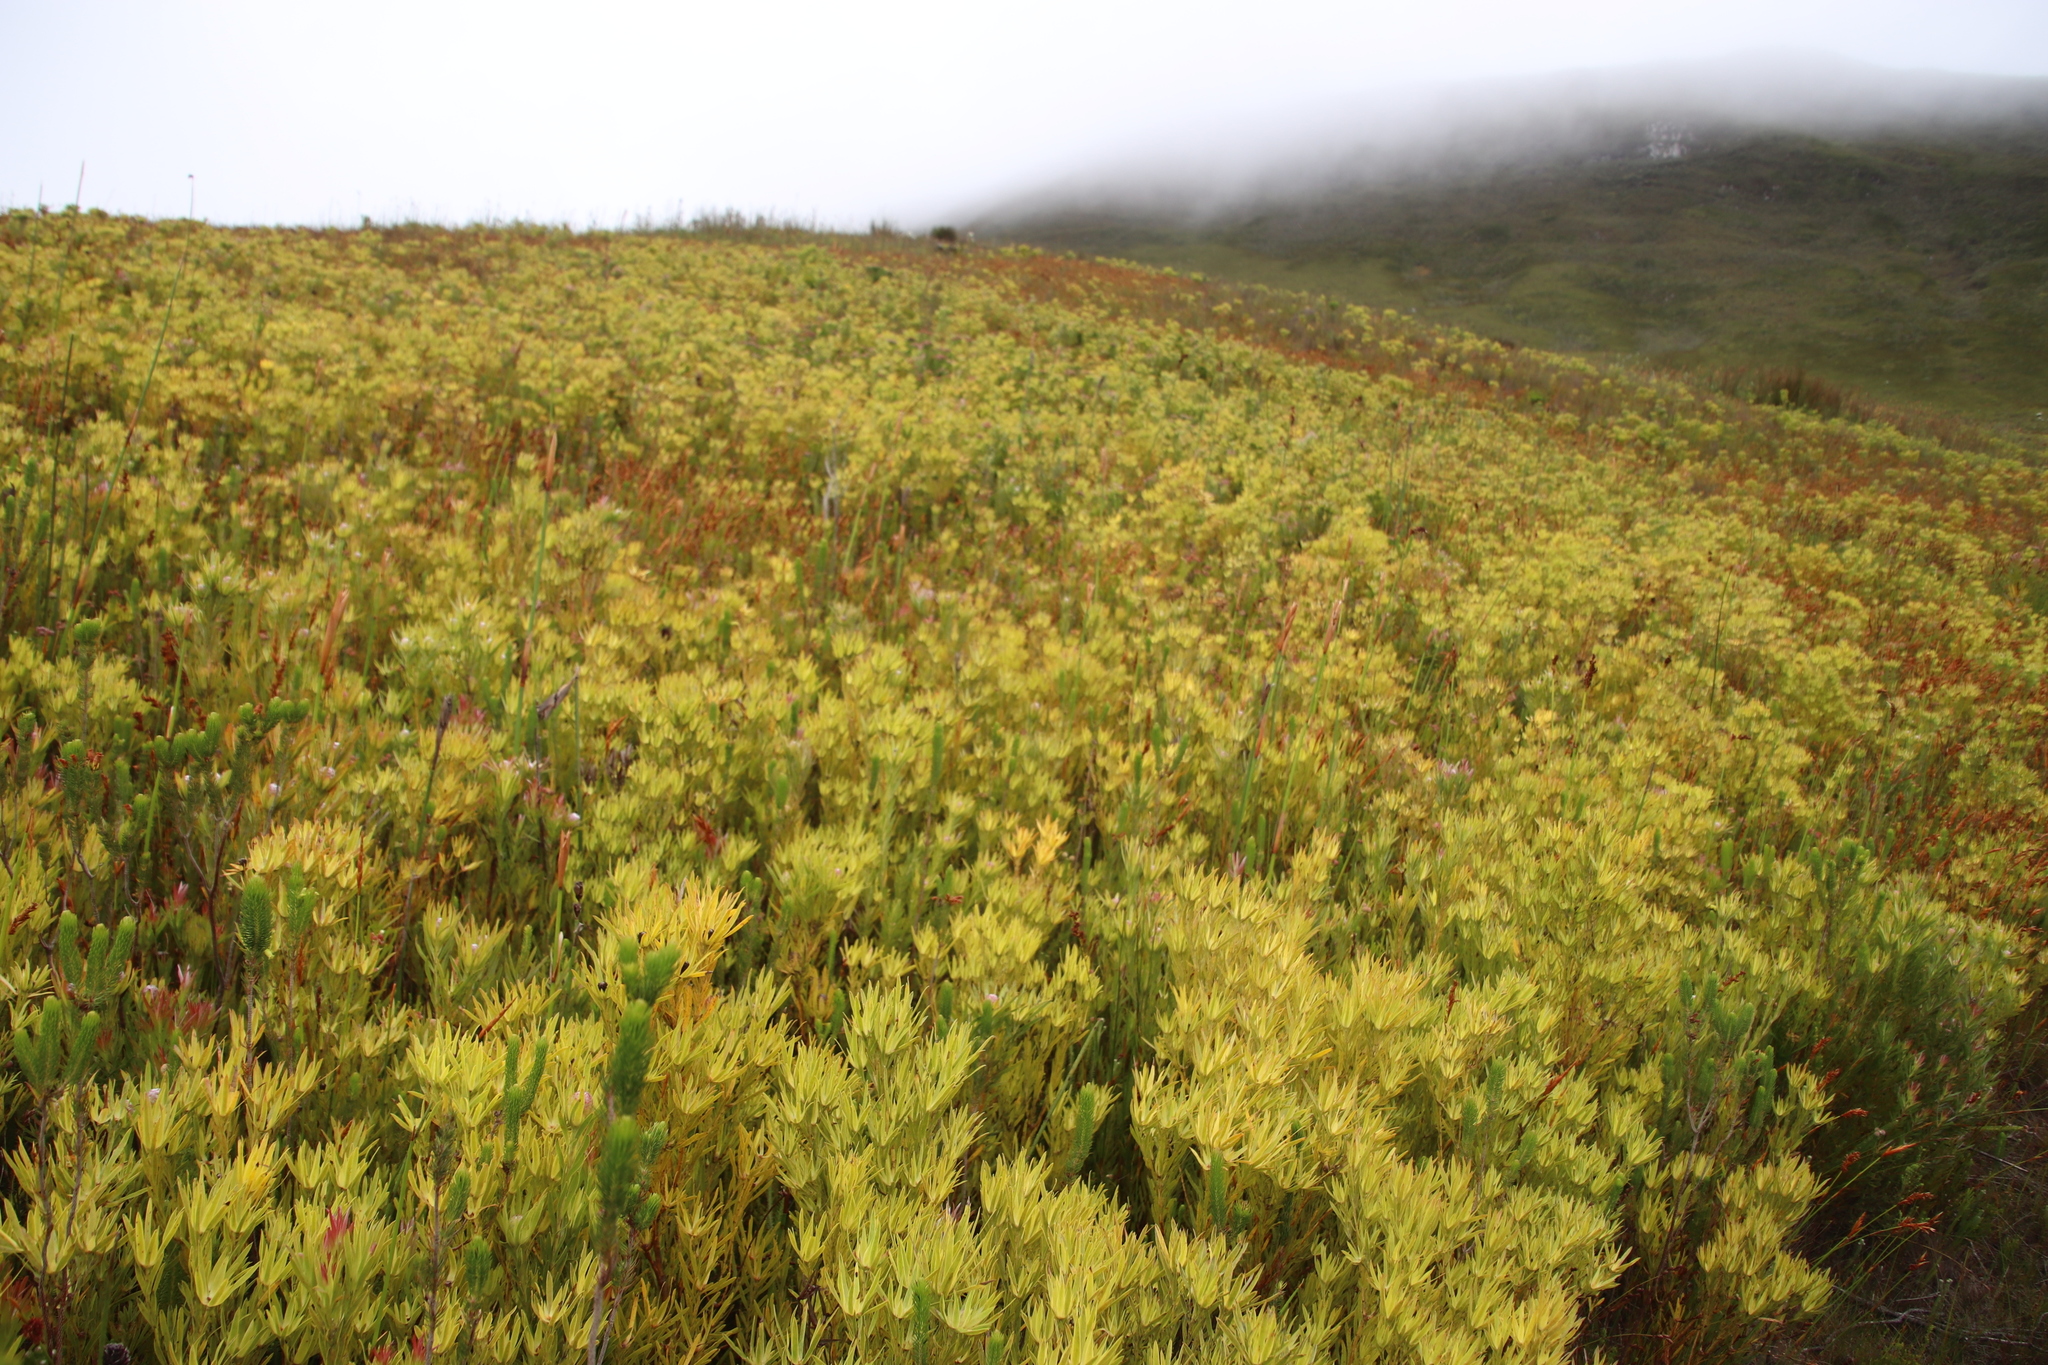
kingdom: Plantae
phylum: Tracheophyta
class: Magnoliopsida
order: Ericales
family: Ericaceae
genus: Erica
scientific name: Erica viscaria
